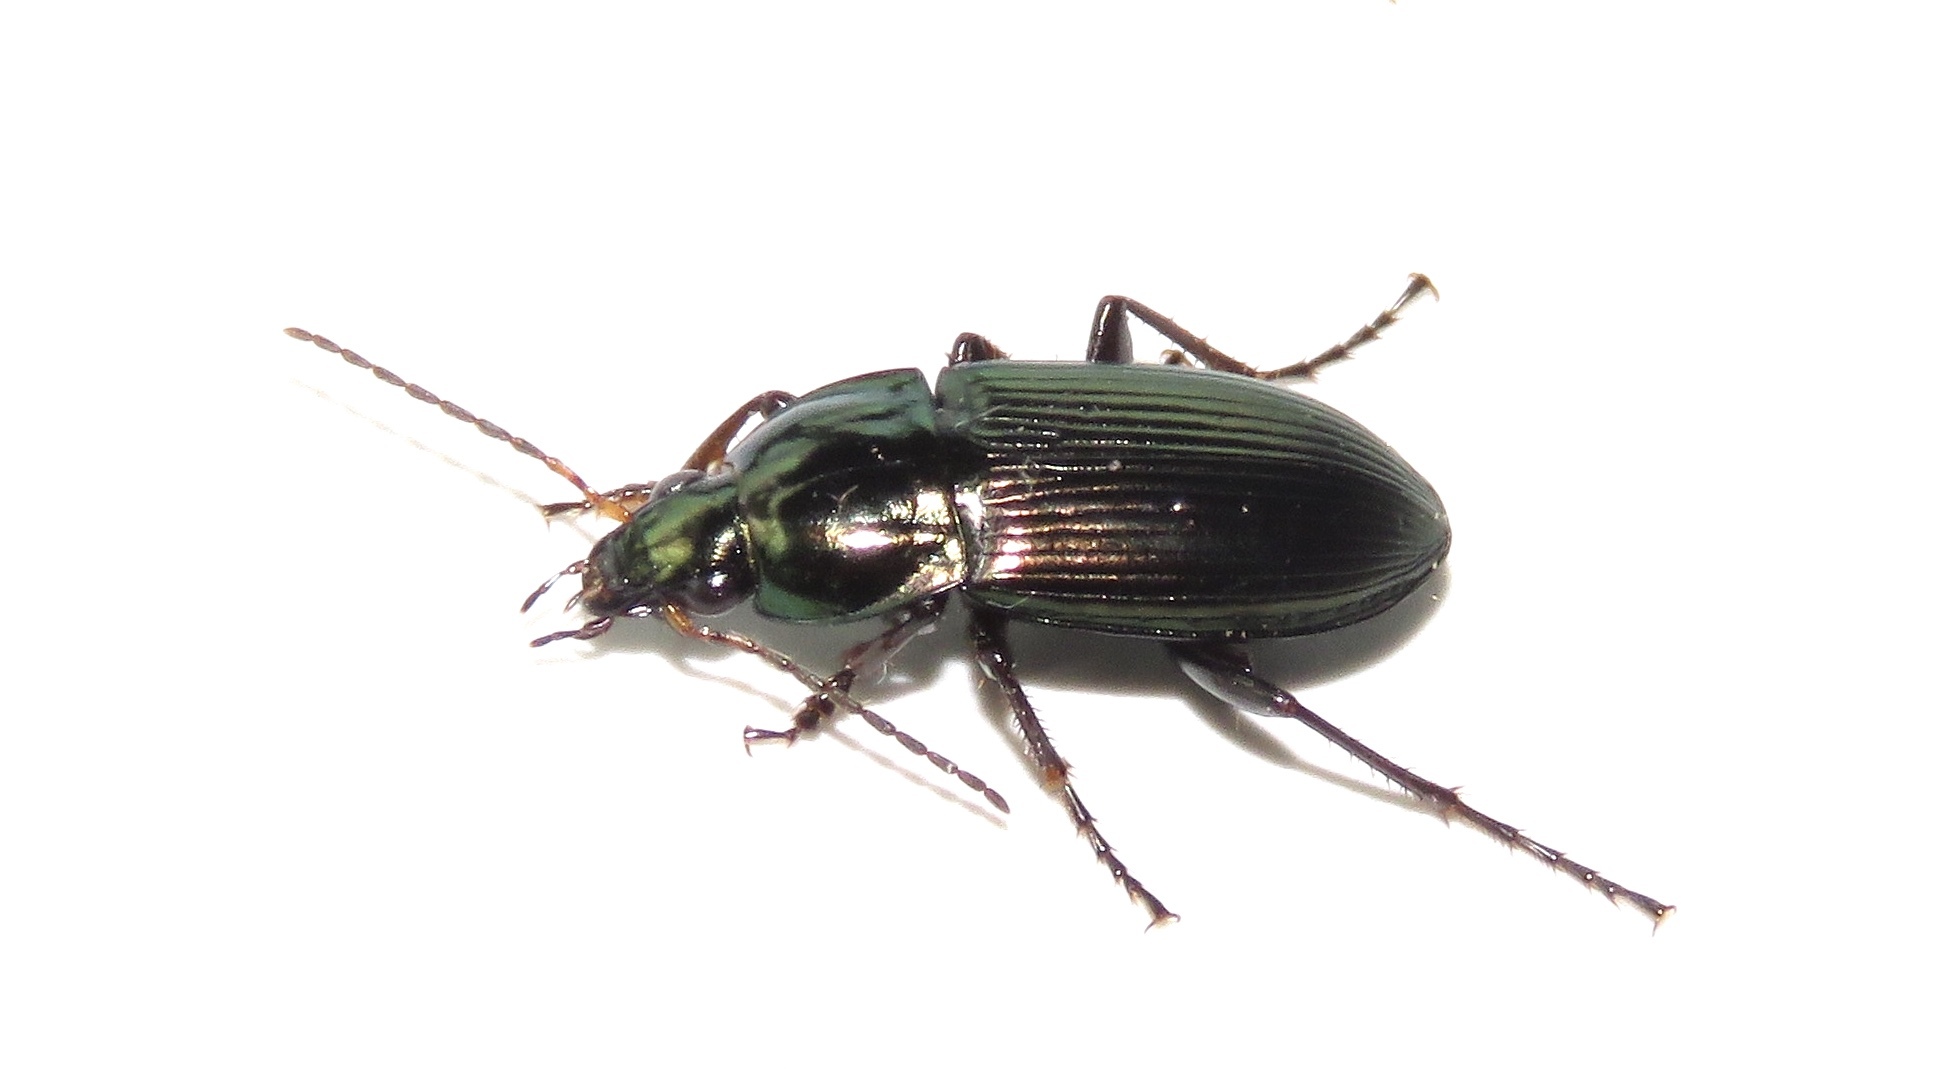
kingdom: Animalia
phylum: Arthropoda
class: Insecta
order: Coleoptera
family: Carabidae
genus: Poecilus
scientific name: Poecilus chalcites
